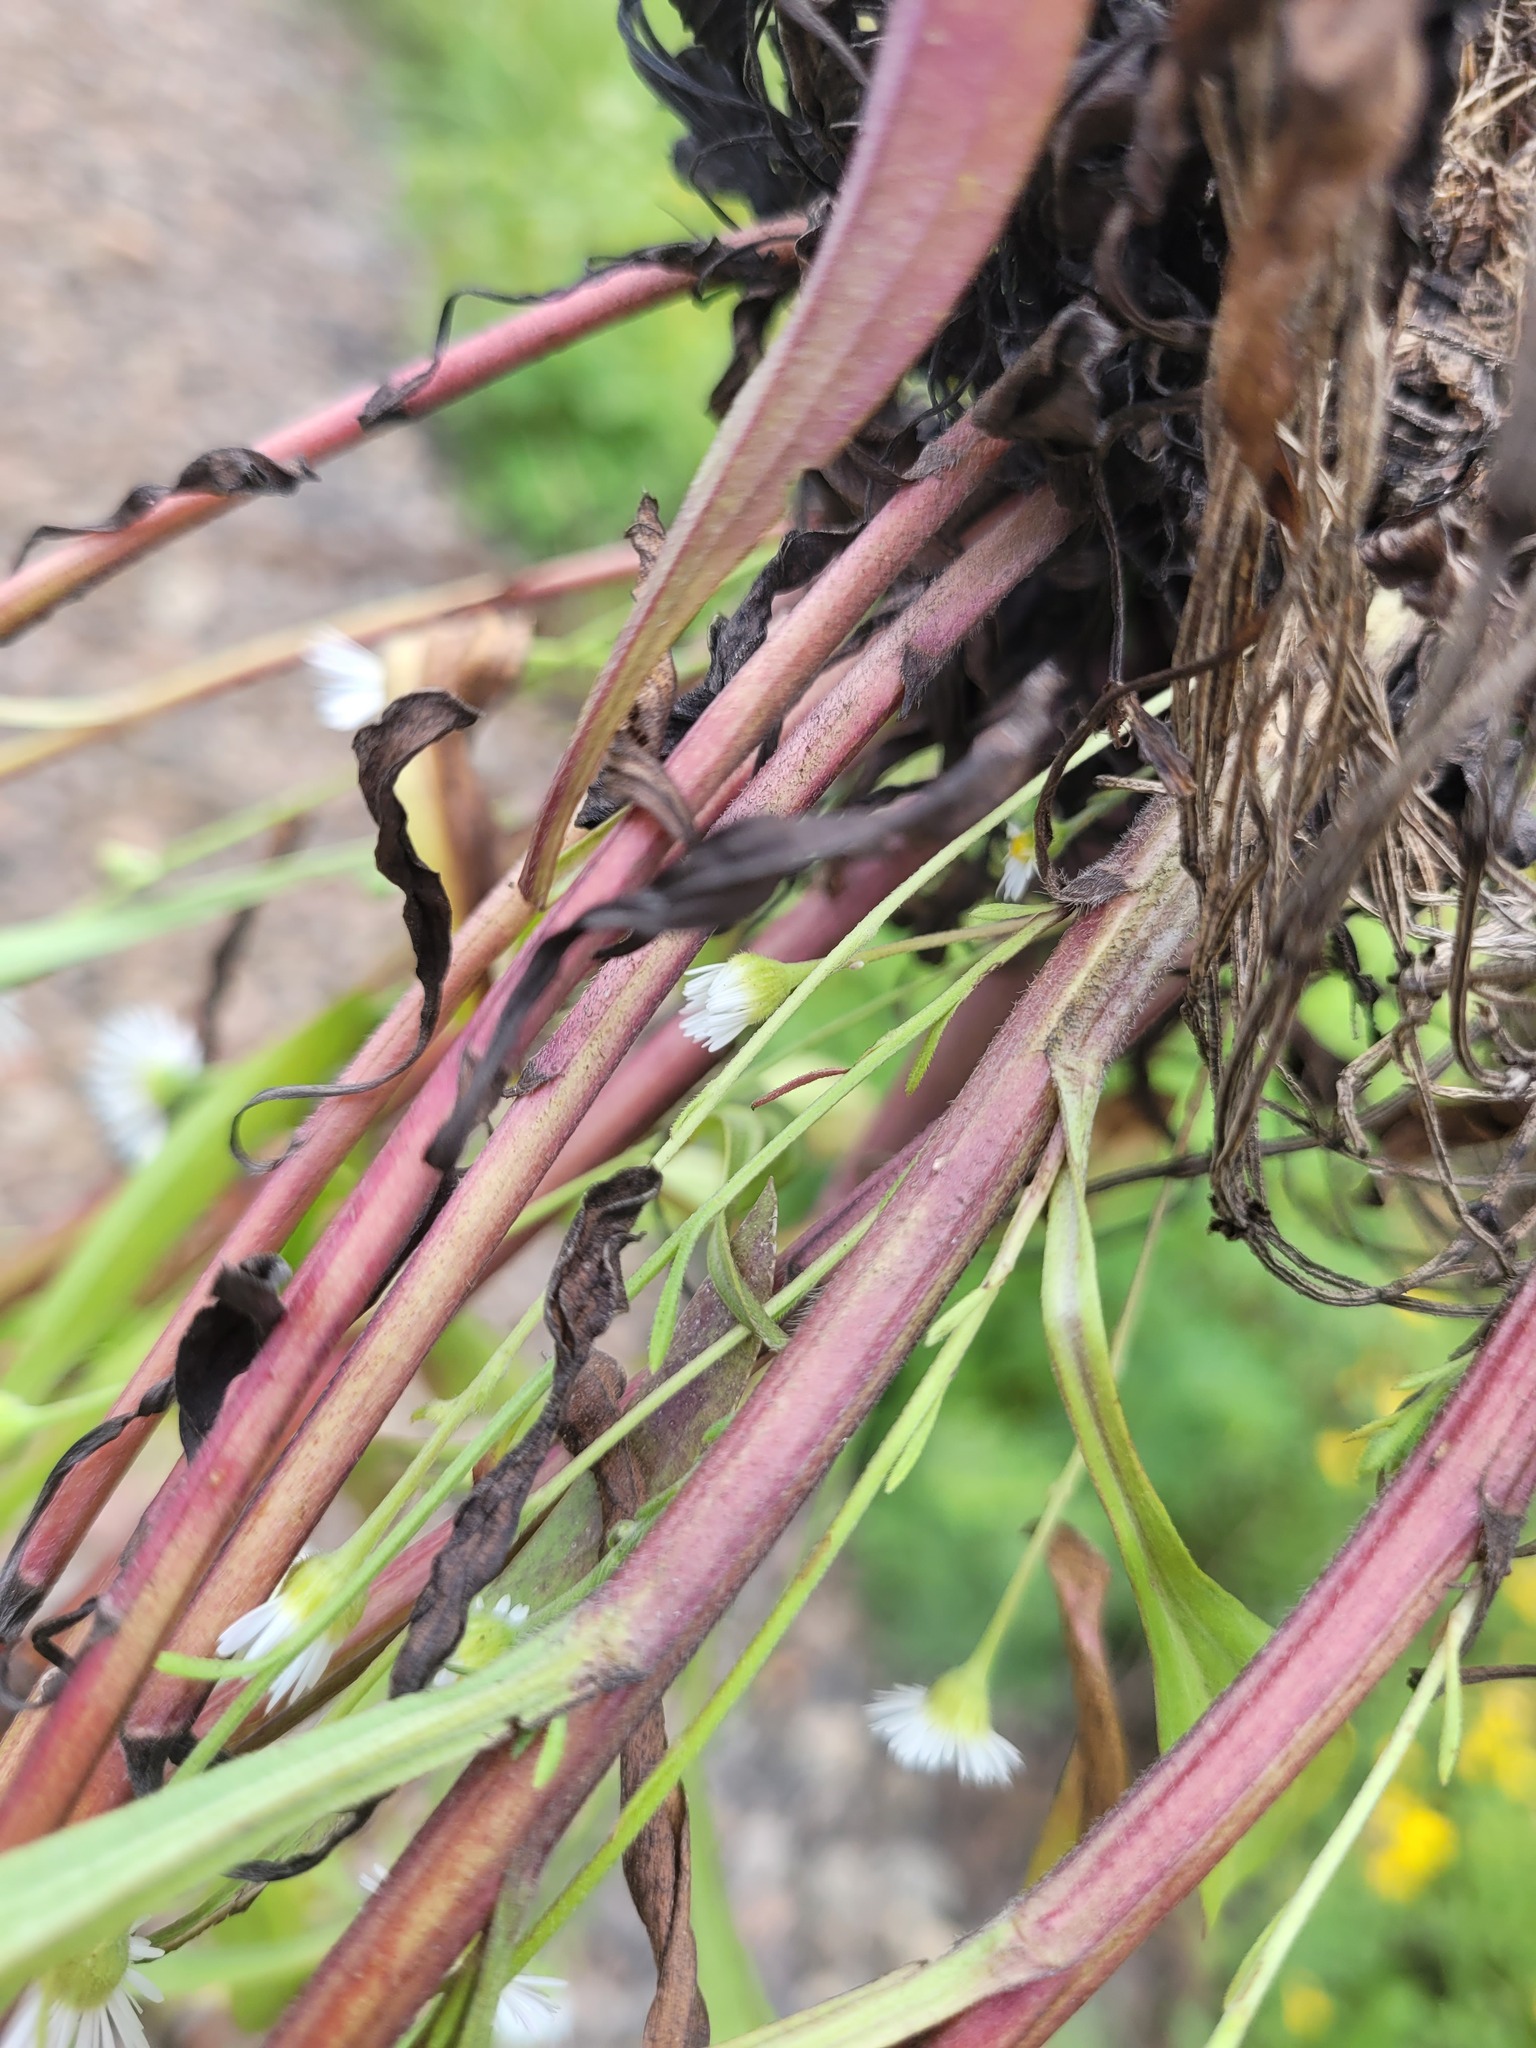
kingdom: Plantae
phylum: Tracheophyta
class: Magnoliopsida
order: Asterales
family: Asteraceae
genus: Erigeron
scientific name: Erigeron strigosus
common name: Common eastern fleabane
